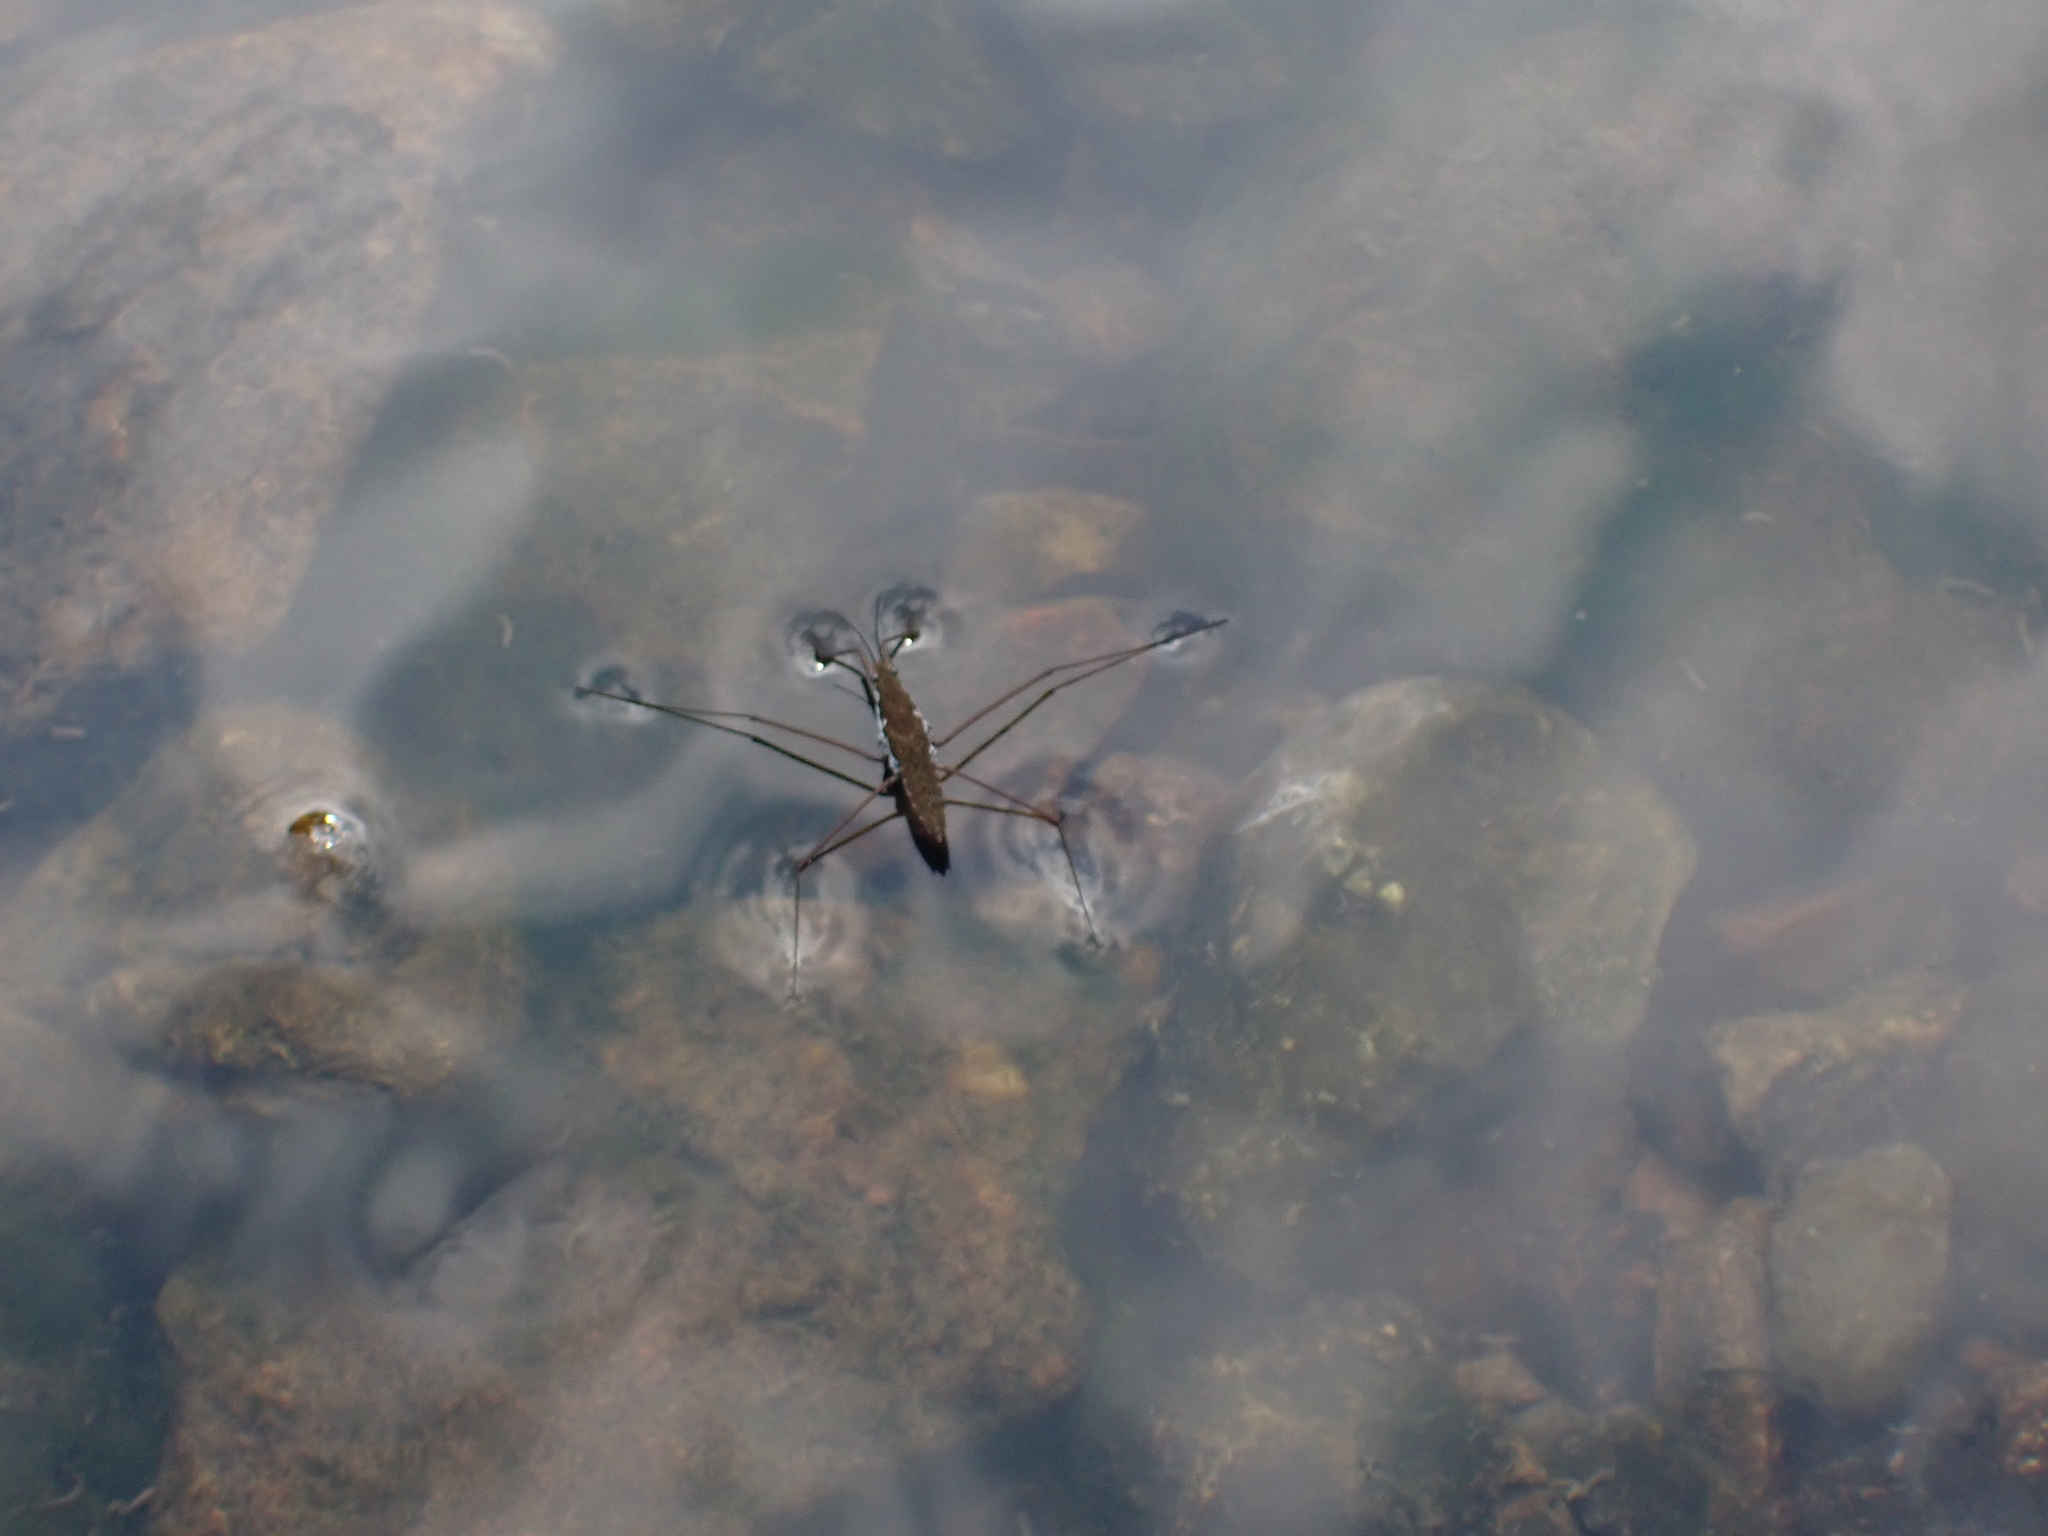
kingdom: Animalia
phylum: Arthropoda
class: Insecta
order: Hemiptera
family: Gerridae
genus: Aquarius
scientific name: Aquarius
